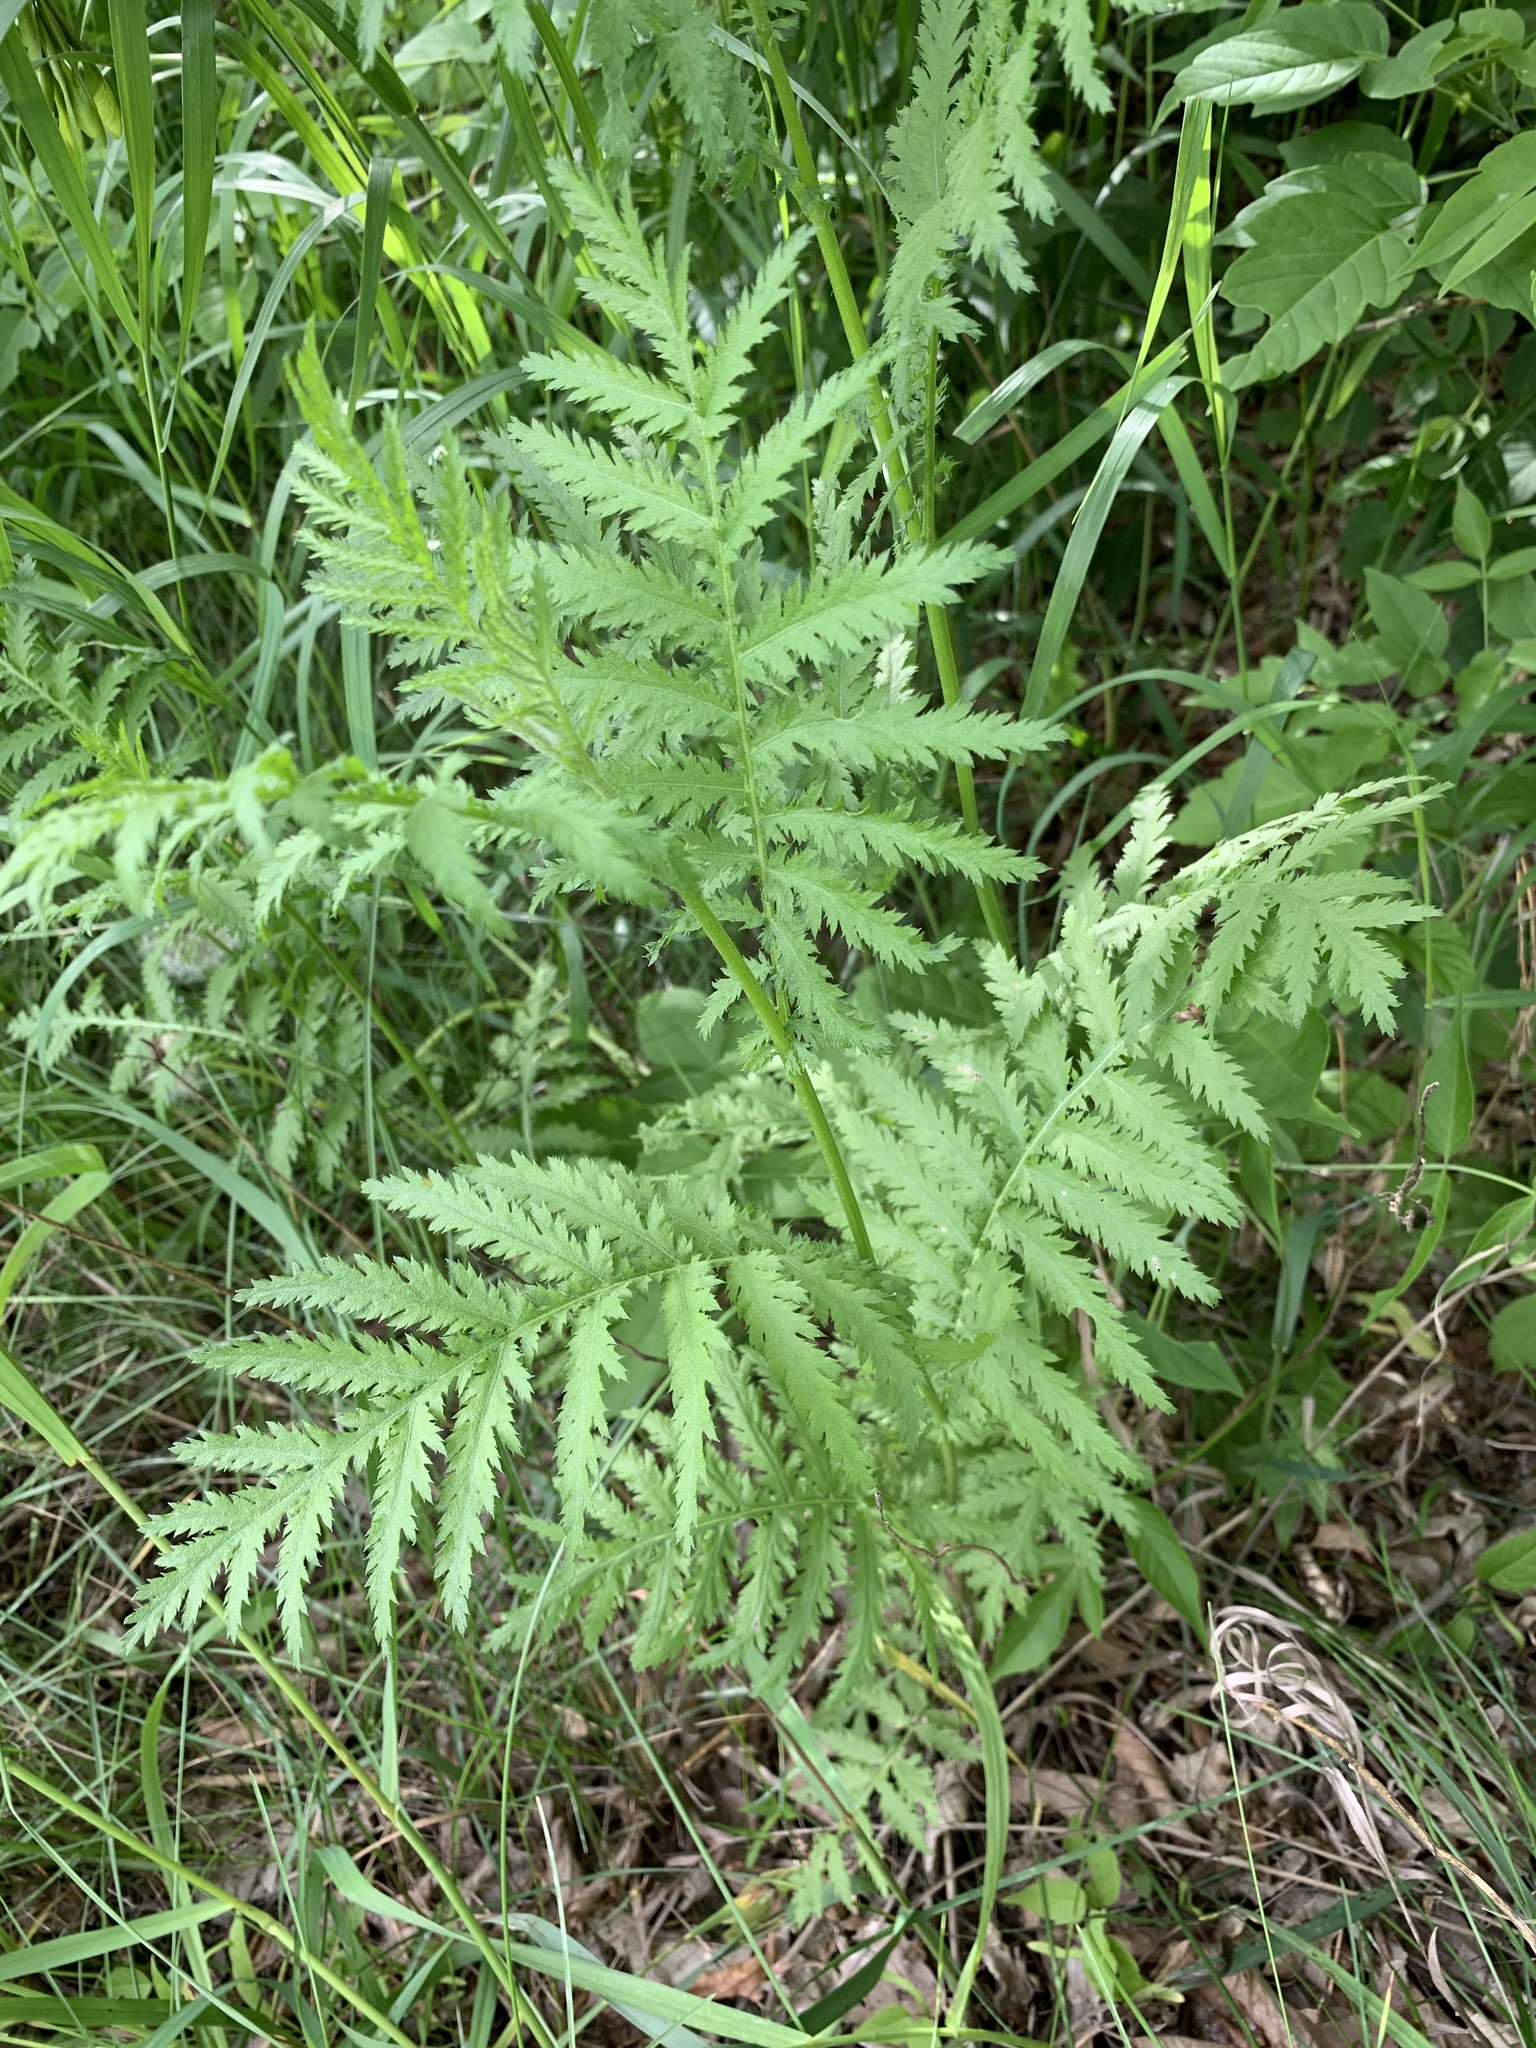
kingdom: Plantae
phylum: Tracheophyta
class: Magnoliopsida
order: Asterales
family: Asteraceae
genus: Tanacetum
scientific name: Tanacetum corymbosum
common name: Scentless feverfew
